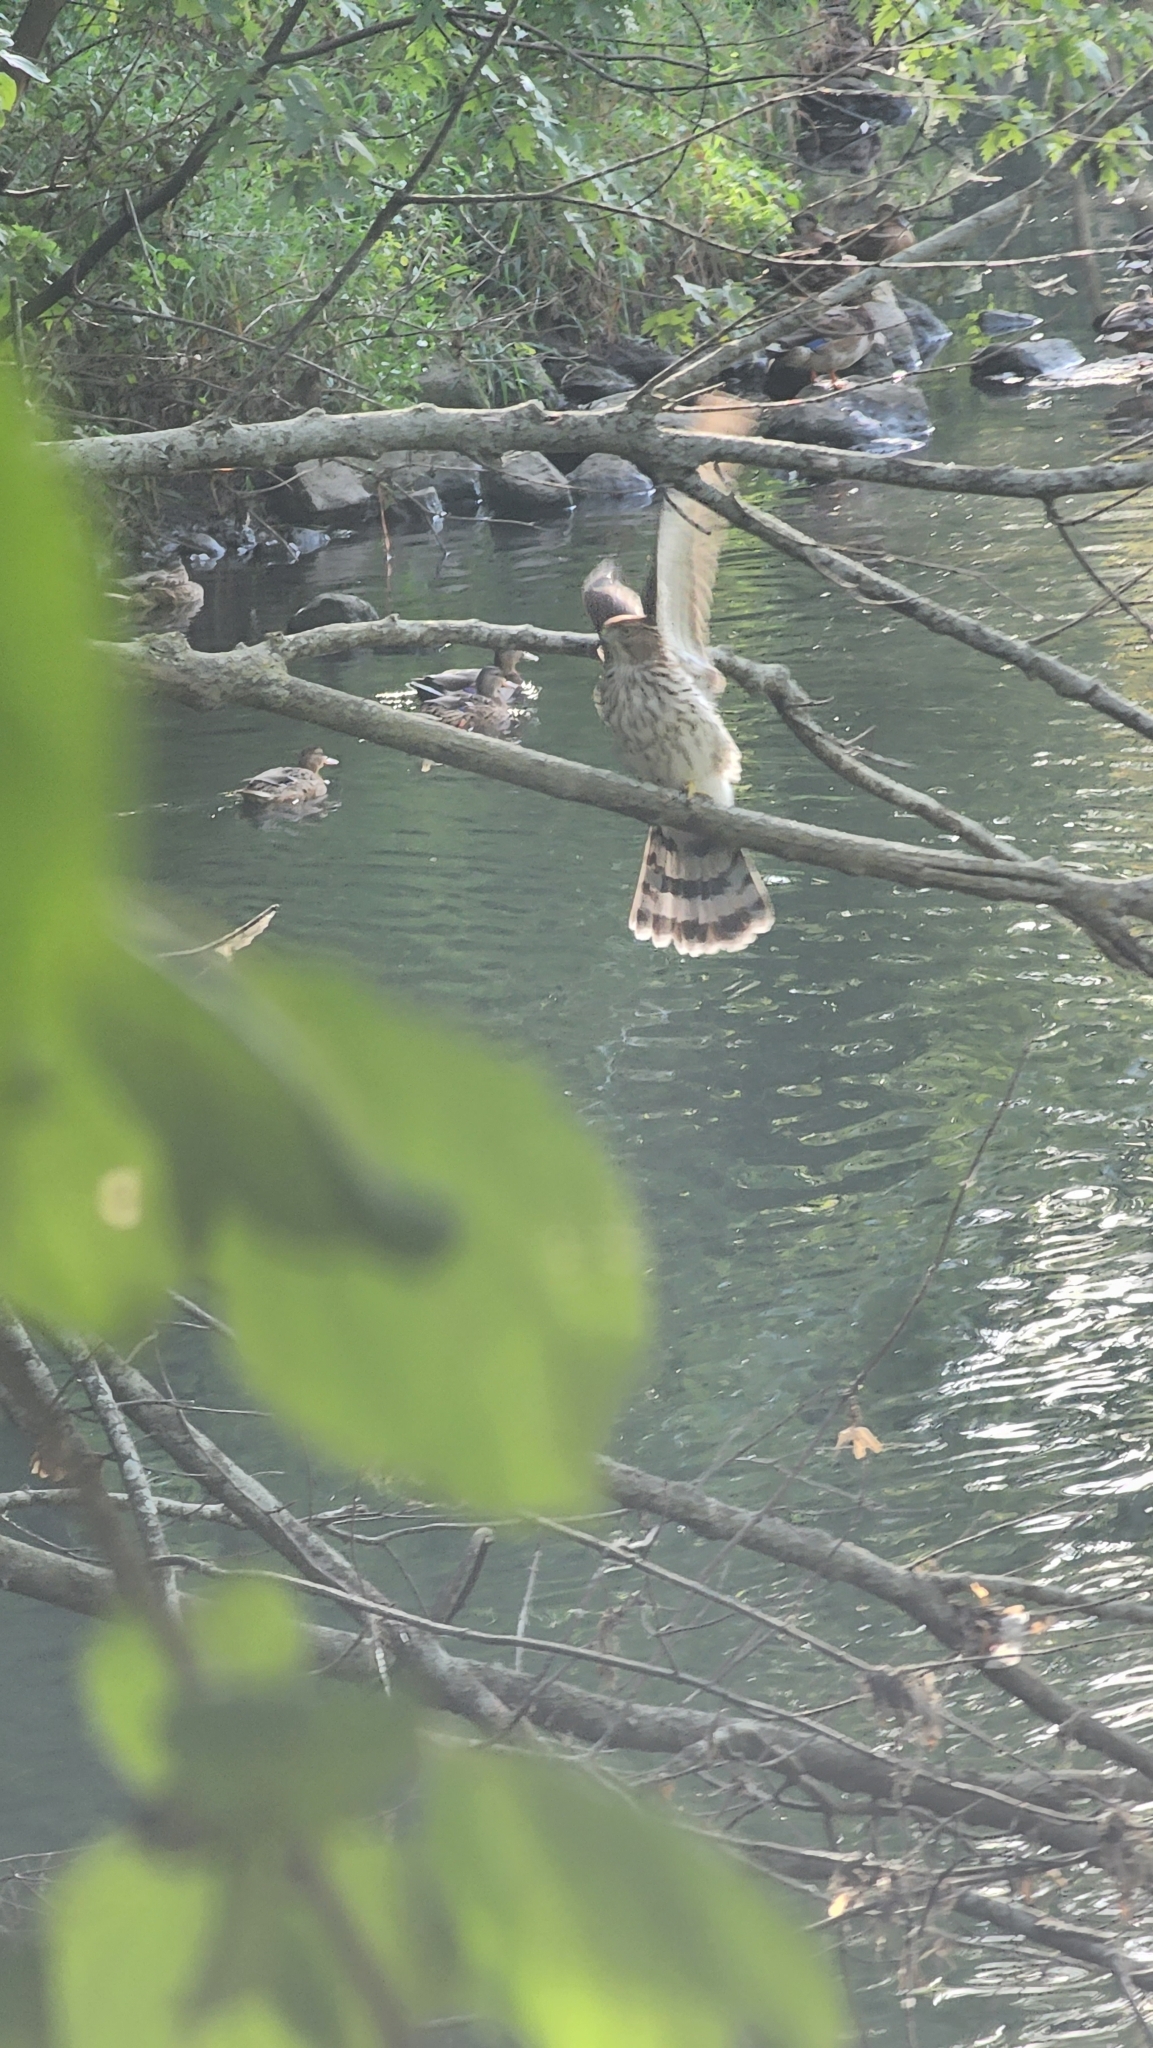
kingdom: Animalia
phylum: Chordata
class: Aves
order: Accipitriformes
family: Accipitridae
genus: Accipiter
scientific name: Accipiter cooperii
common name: Cooper's hawk
